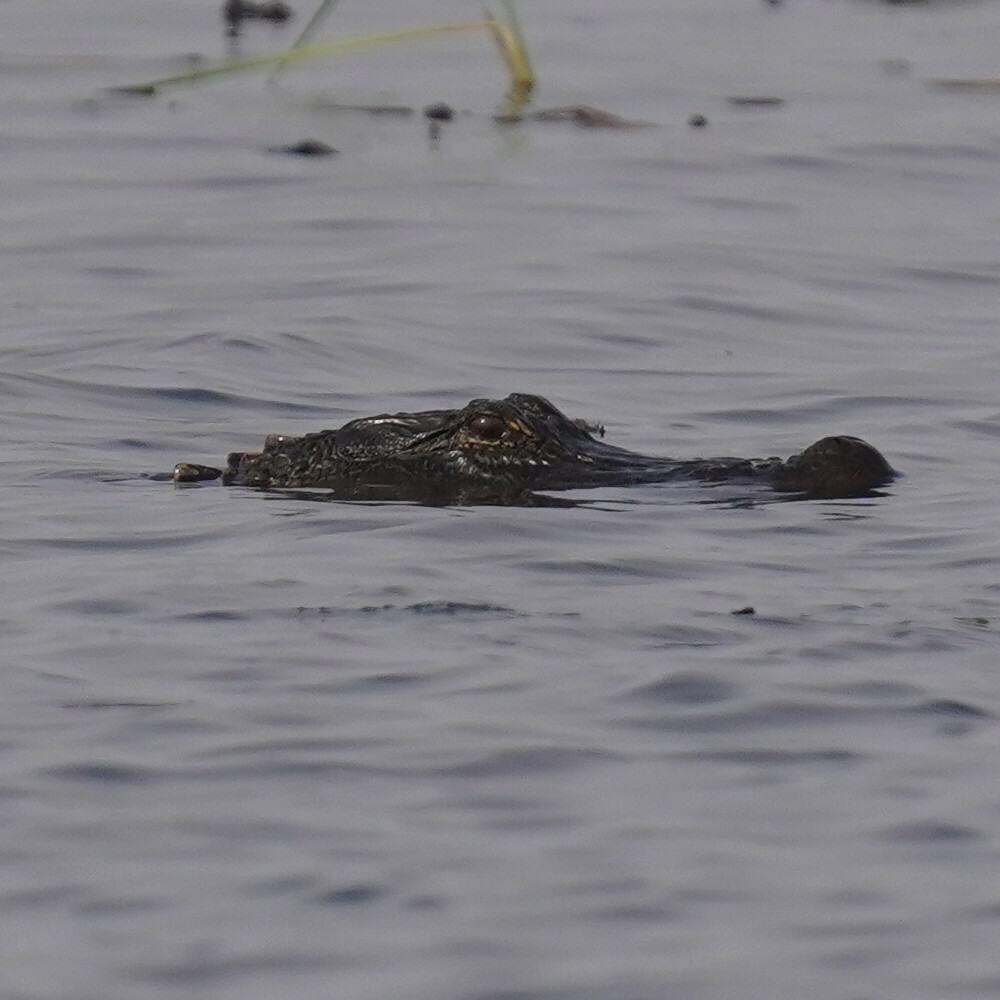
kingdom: Animalia
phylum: Chordata
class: Crocodylia
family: Alligatoridae
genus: Alligator
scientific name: Alligator mississippiensis
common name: American alligator
